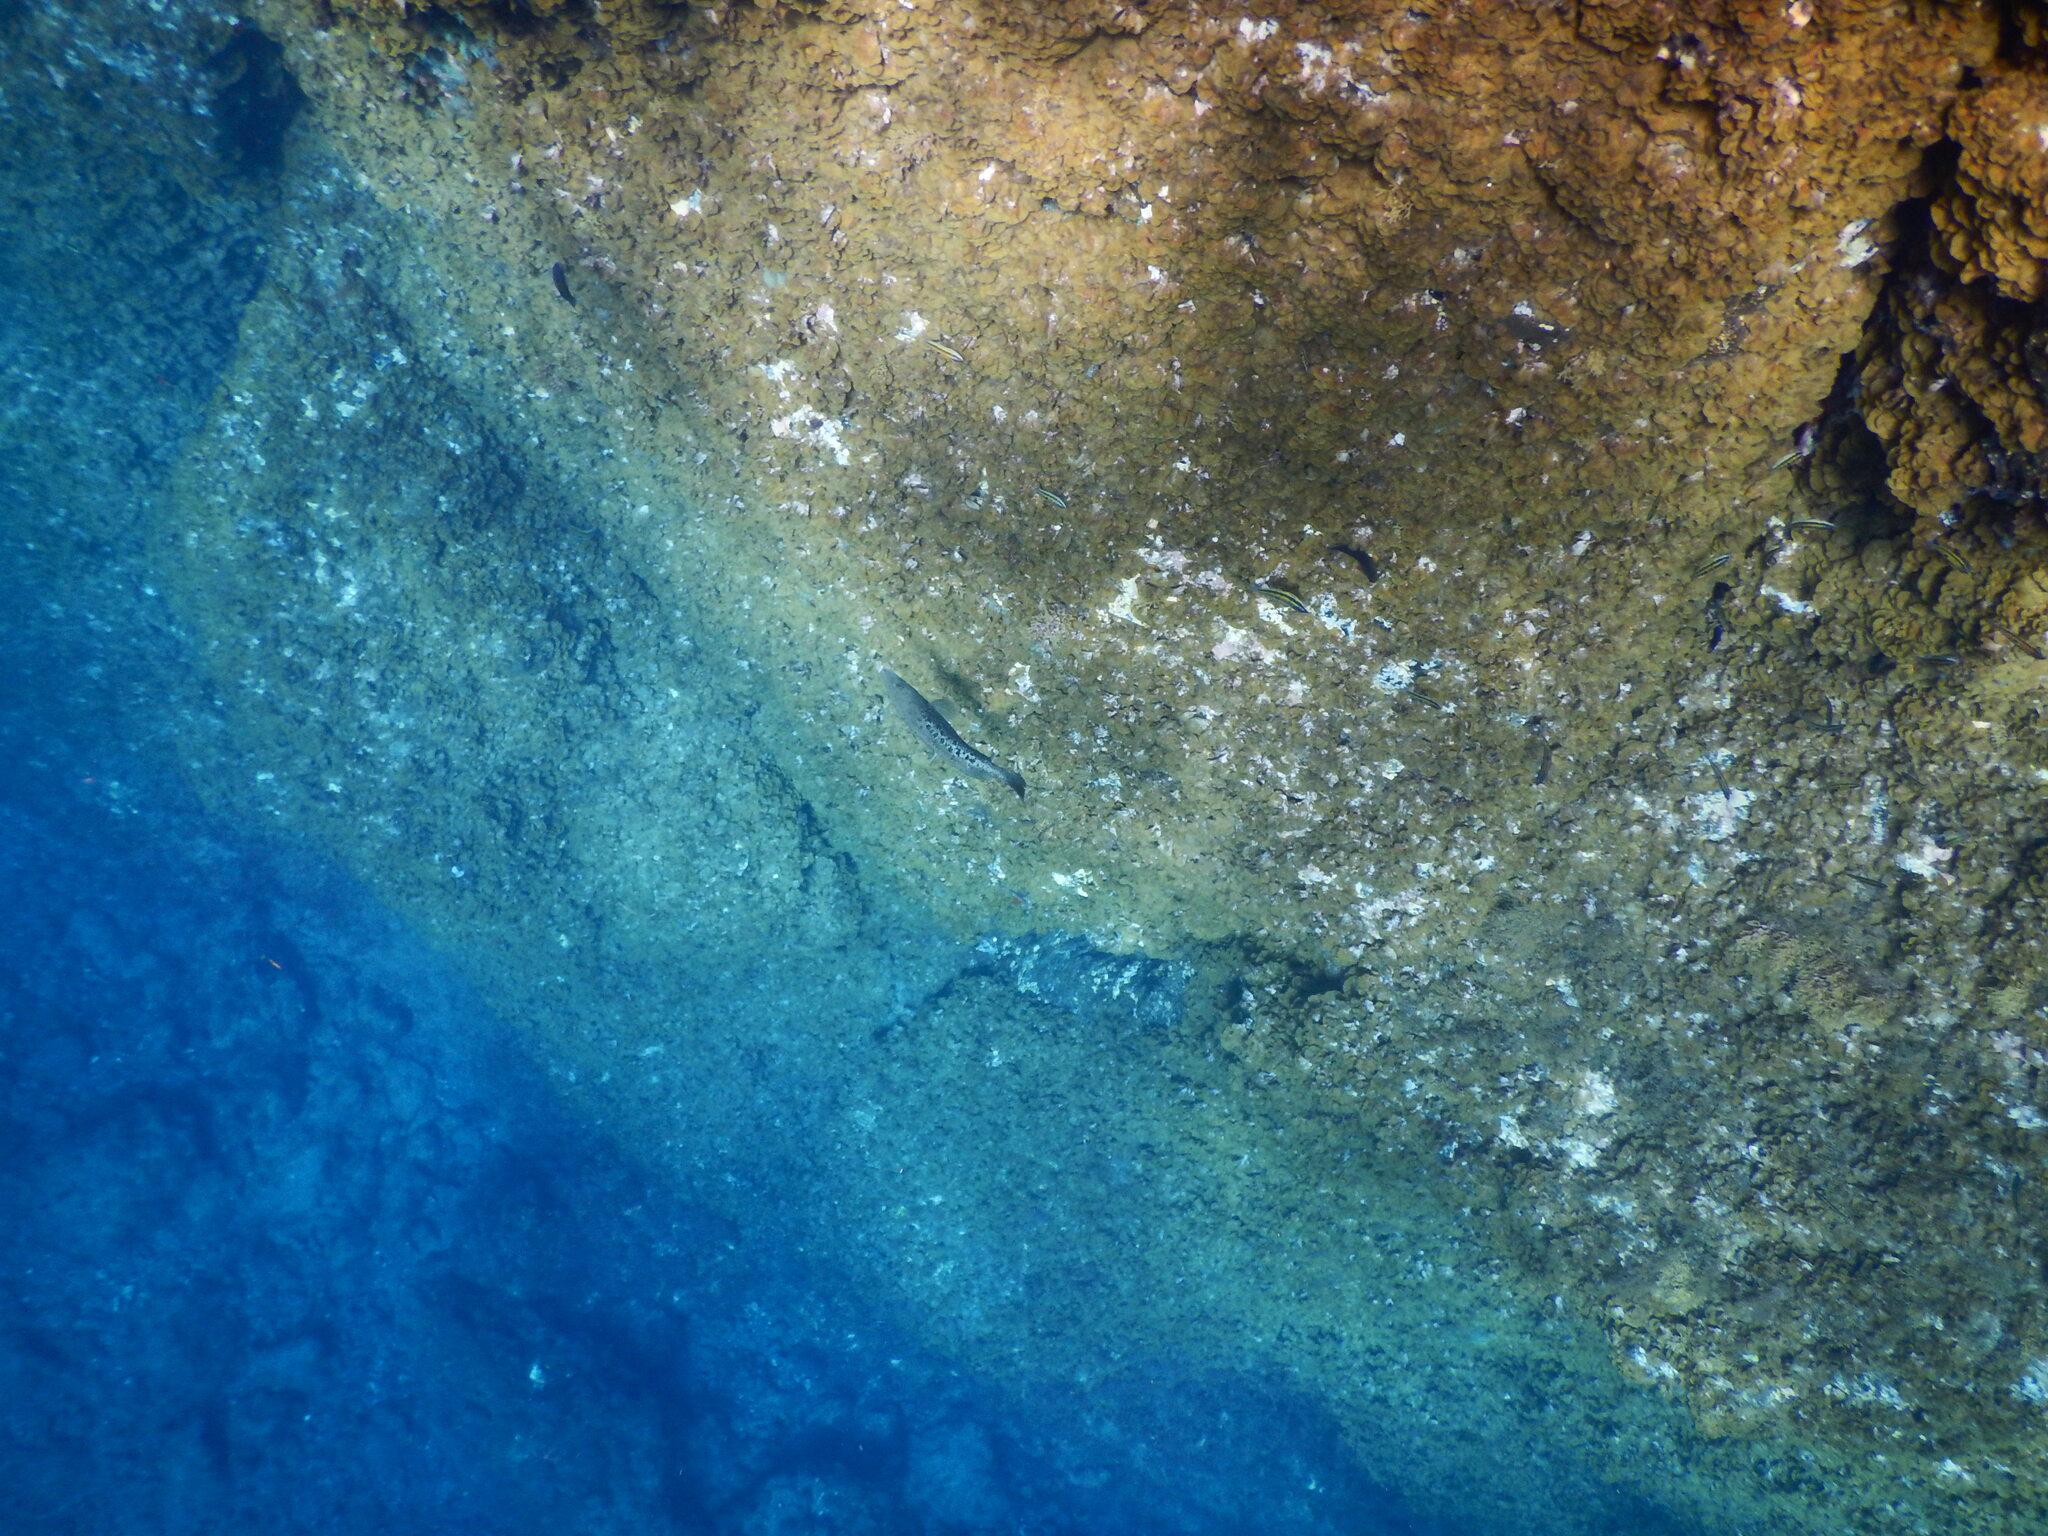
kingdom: Animalia
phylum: Chordata
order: Perciformes
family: Serranidae
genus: Mycteroperca
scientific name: Mycteroperca fusca
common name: Island grouper
